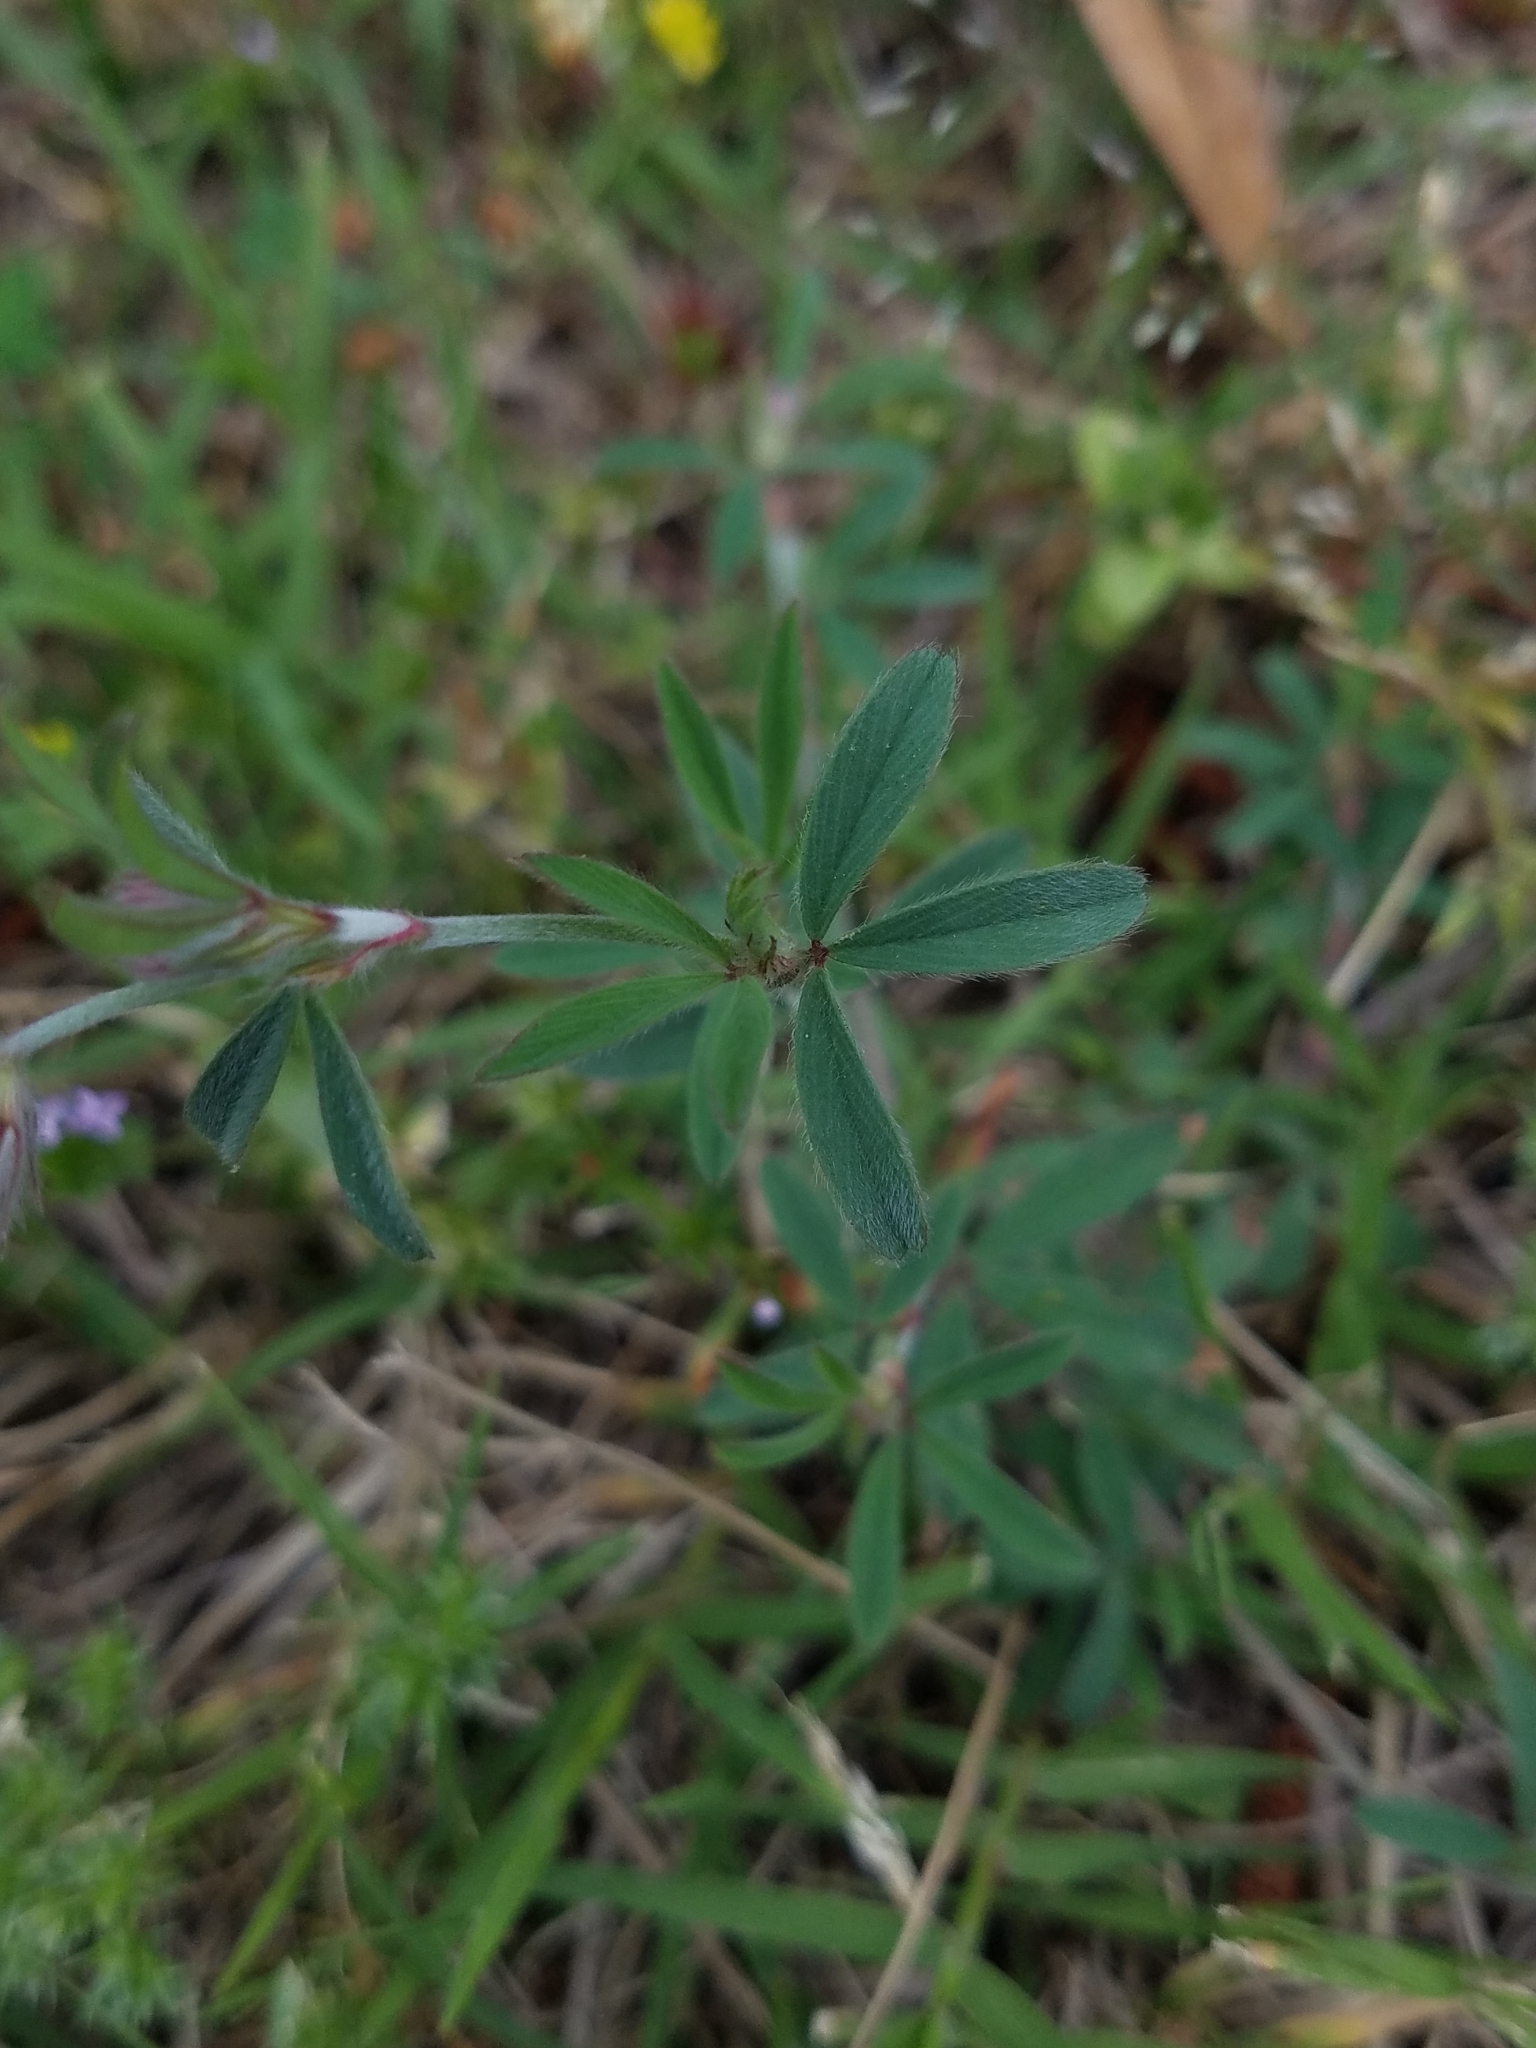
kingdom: Plantae
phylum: Tracheophyta
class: Magnoliopsida
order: Fabales
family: Fabaceae
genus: Trifolium
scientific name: Trifolium arvense
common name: Hare's-foot clover
